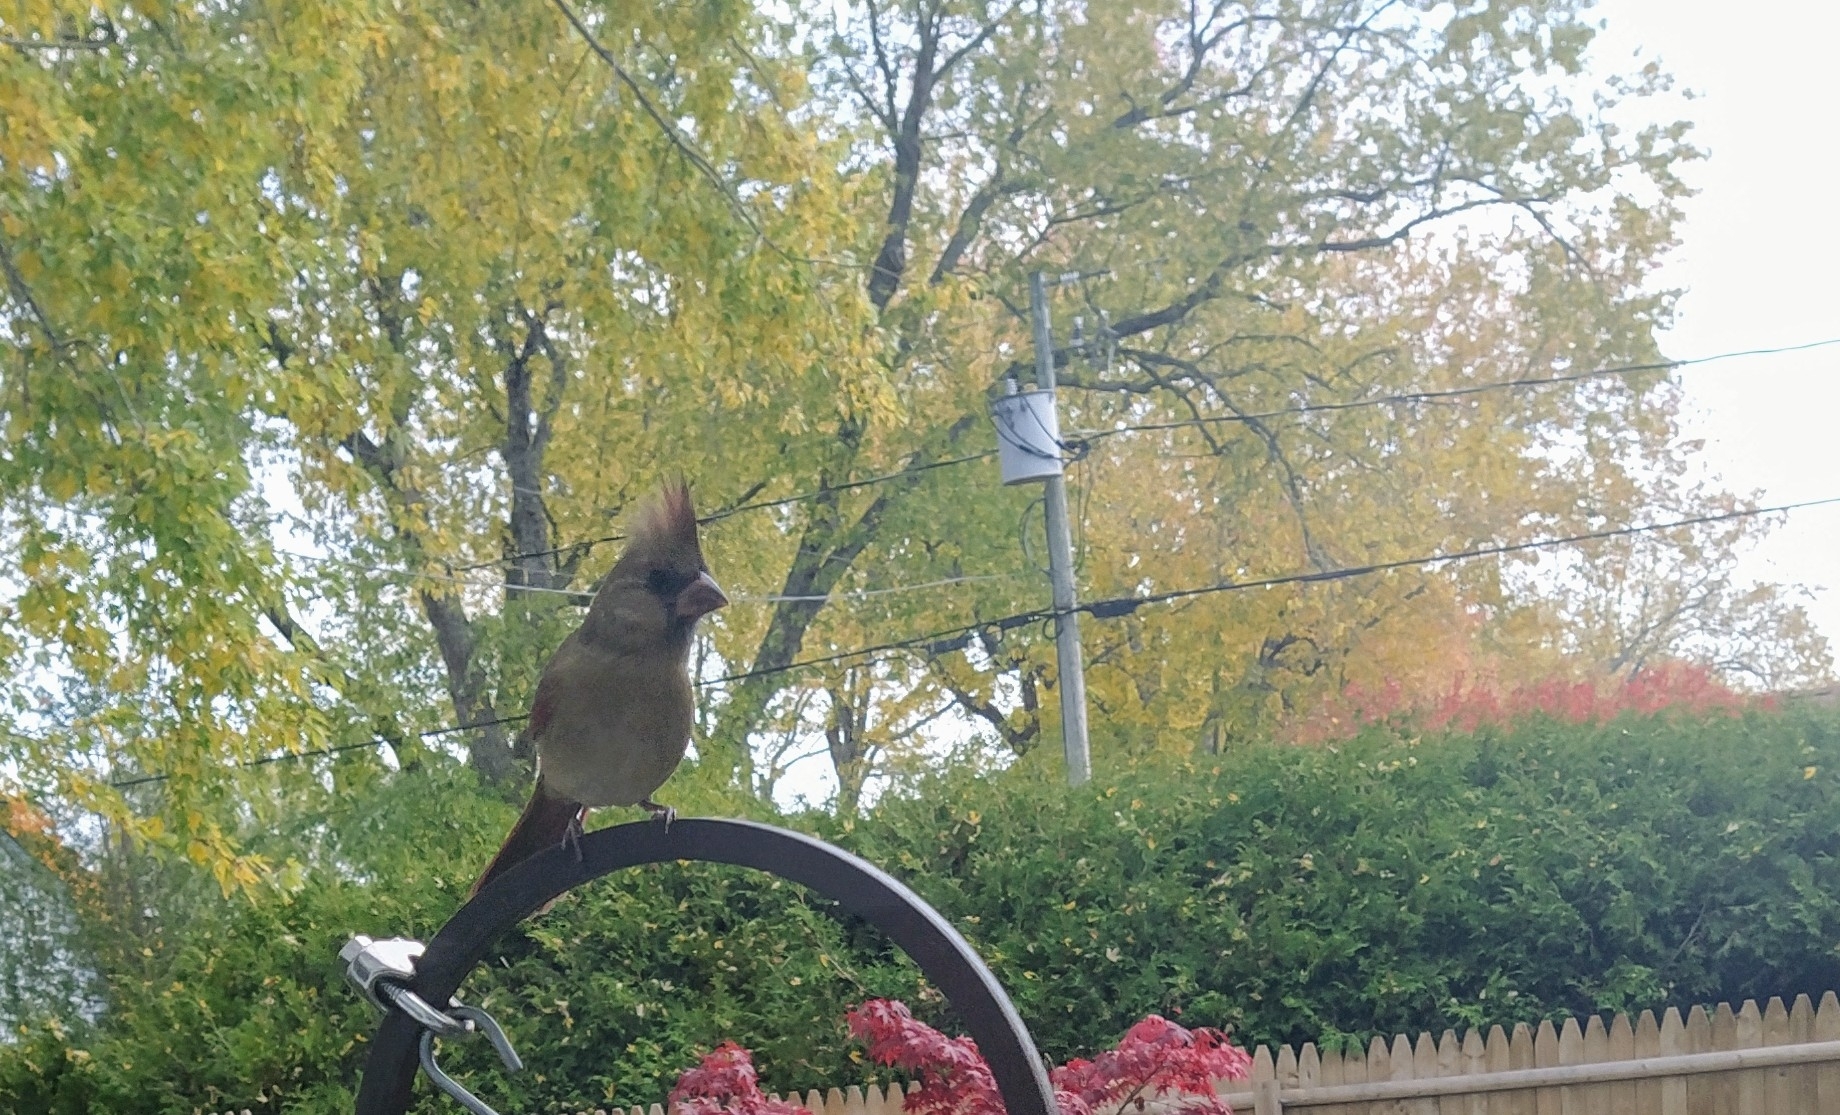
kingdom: Animalia
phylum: Chordata
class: Aves
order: Passeriformes
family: Cardinalidae
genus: Cardinalis
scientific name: Cardinalis cardinalis
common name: Northern cardinal
